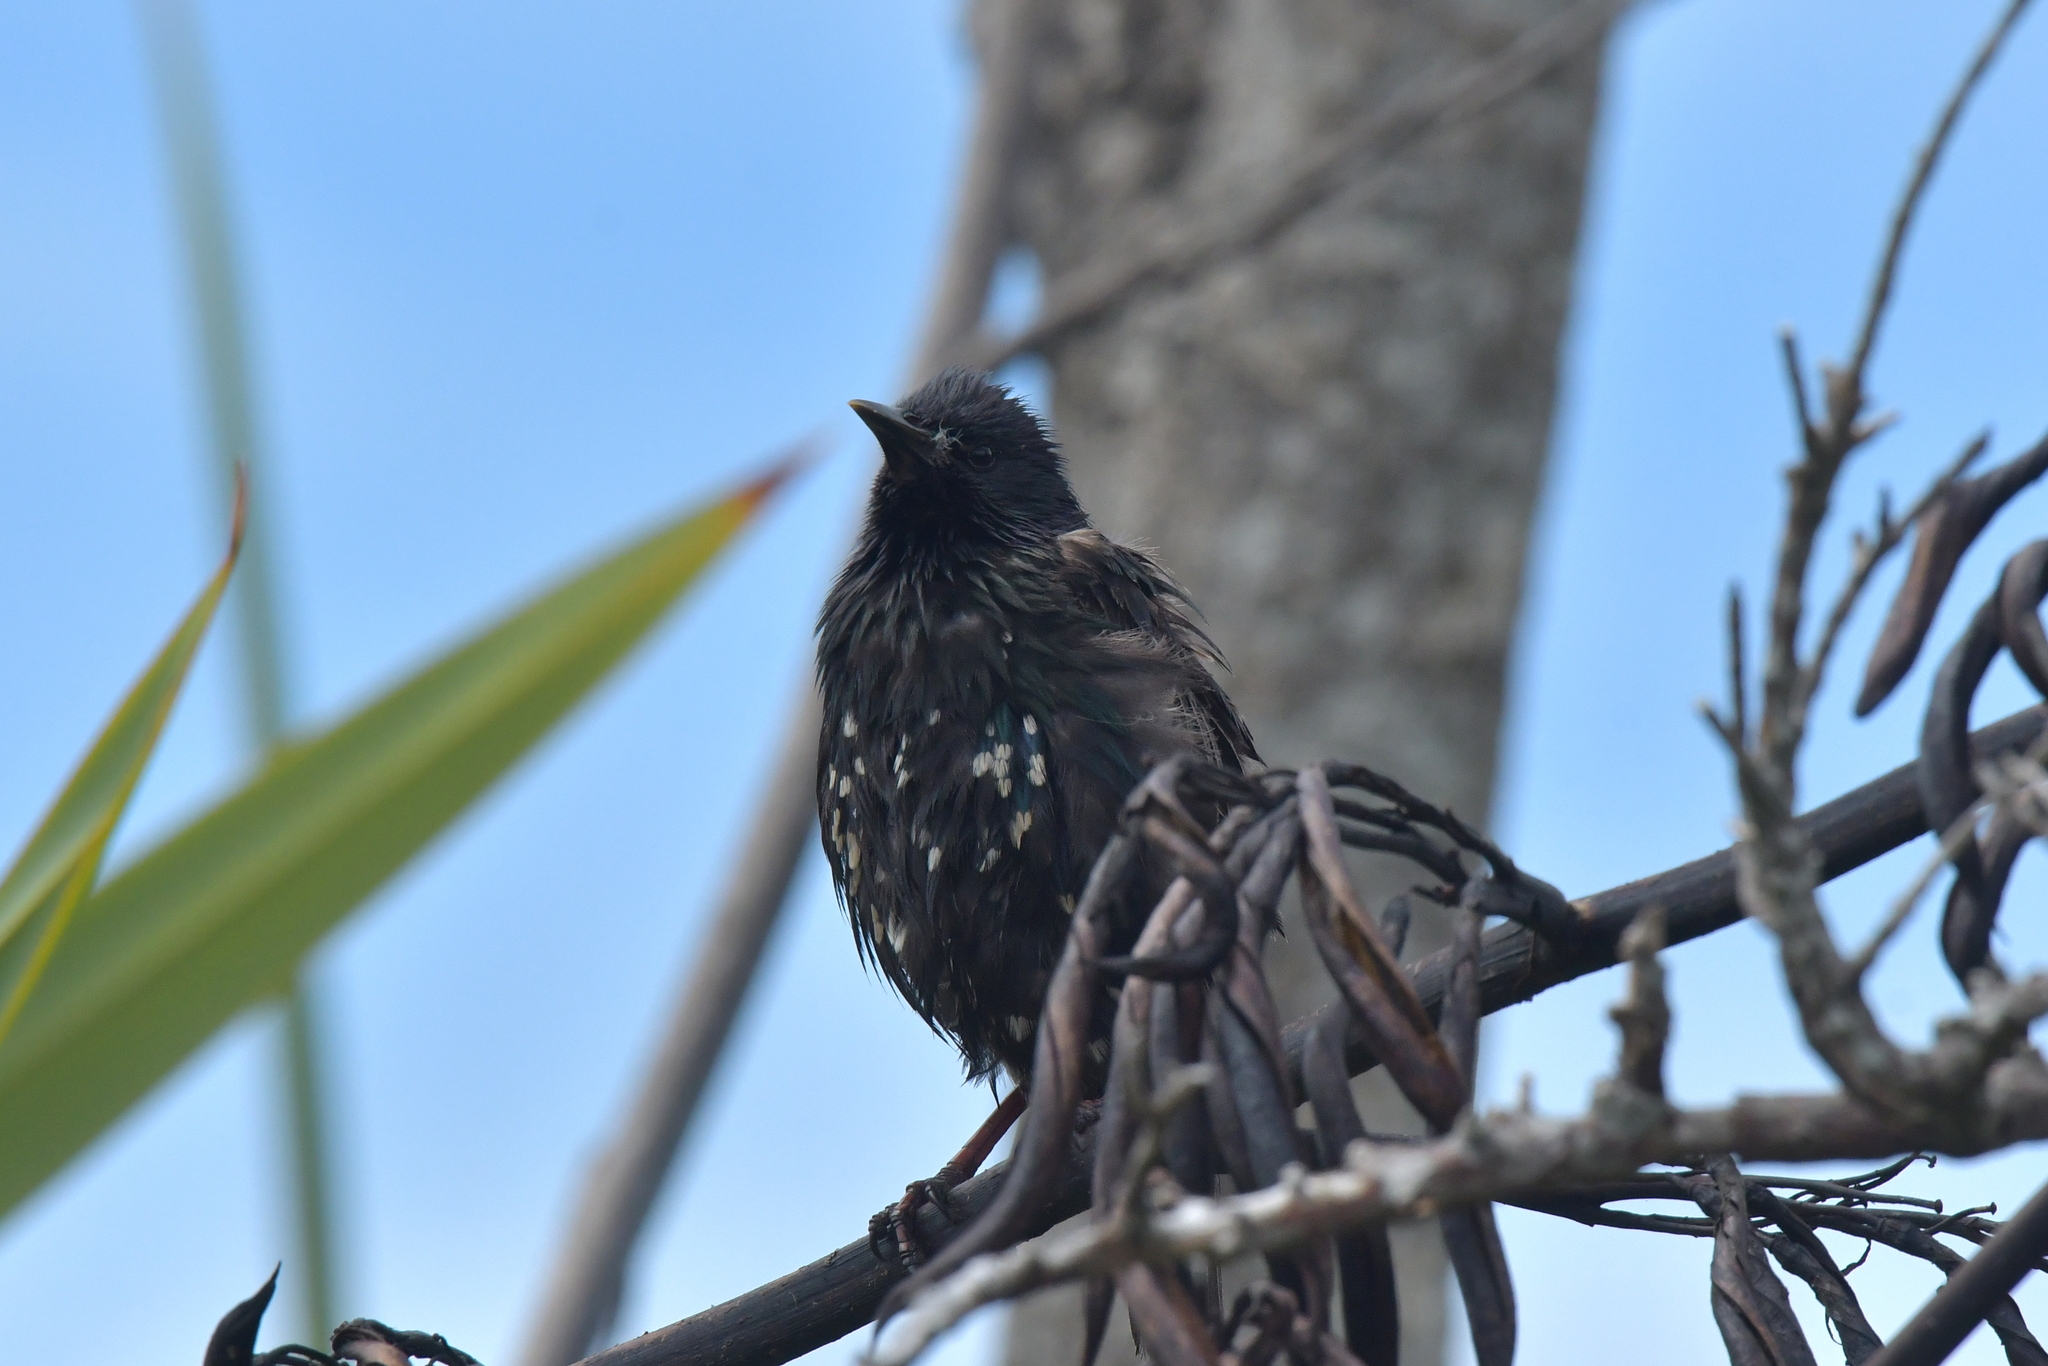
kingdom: Animalia
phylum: Chordata
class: Aves
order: Passeriformes
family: Sturnidae
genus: Sturnus
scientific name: Sturnus vulgaris
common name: Common starling
